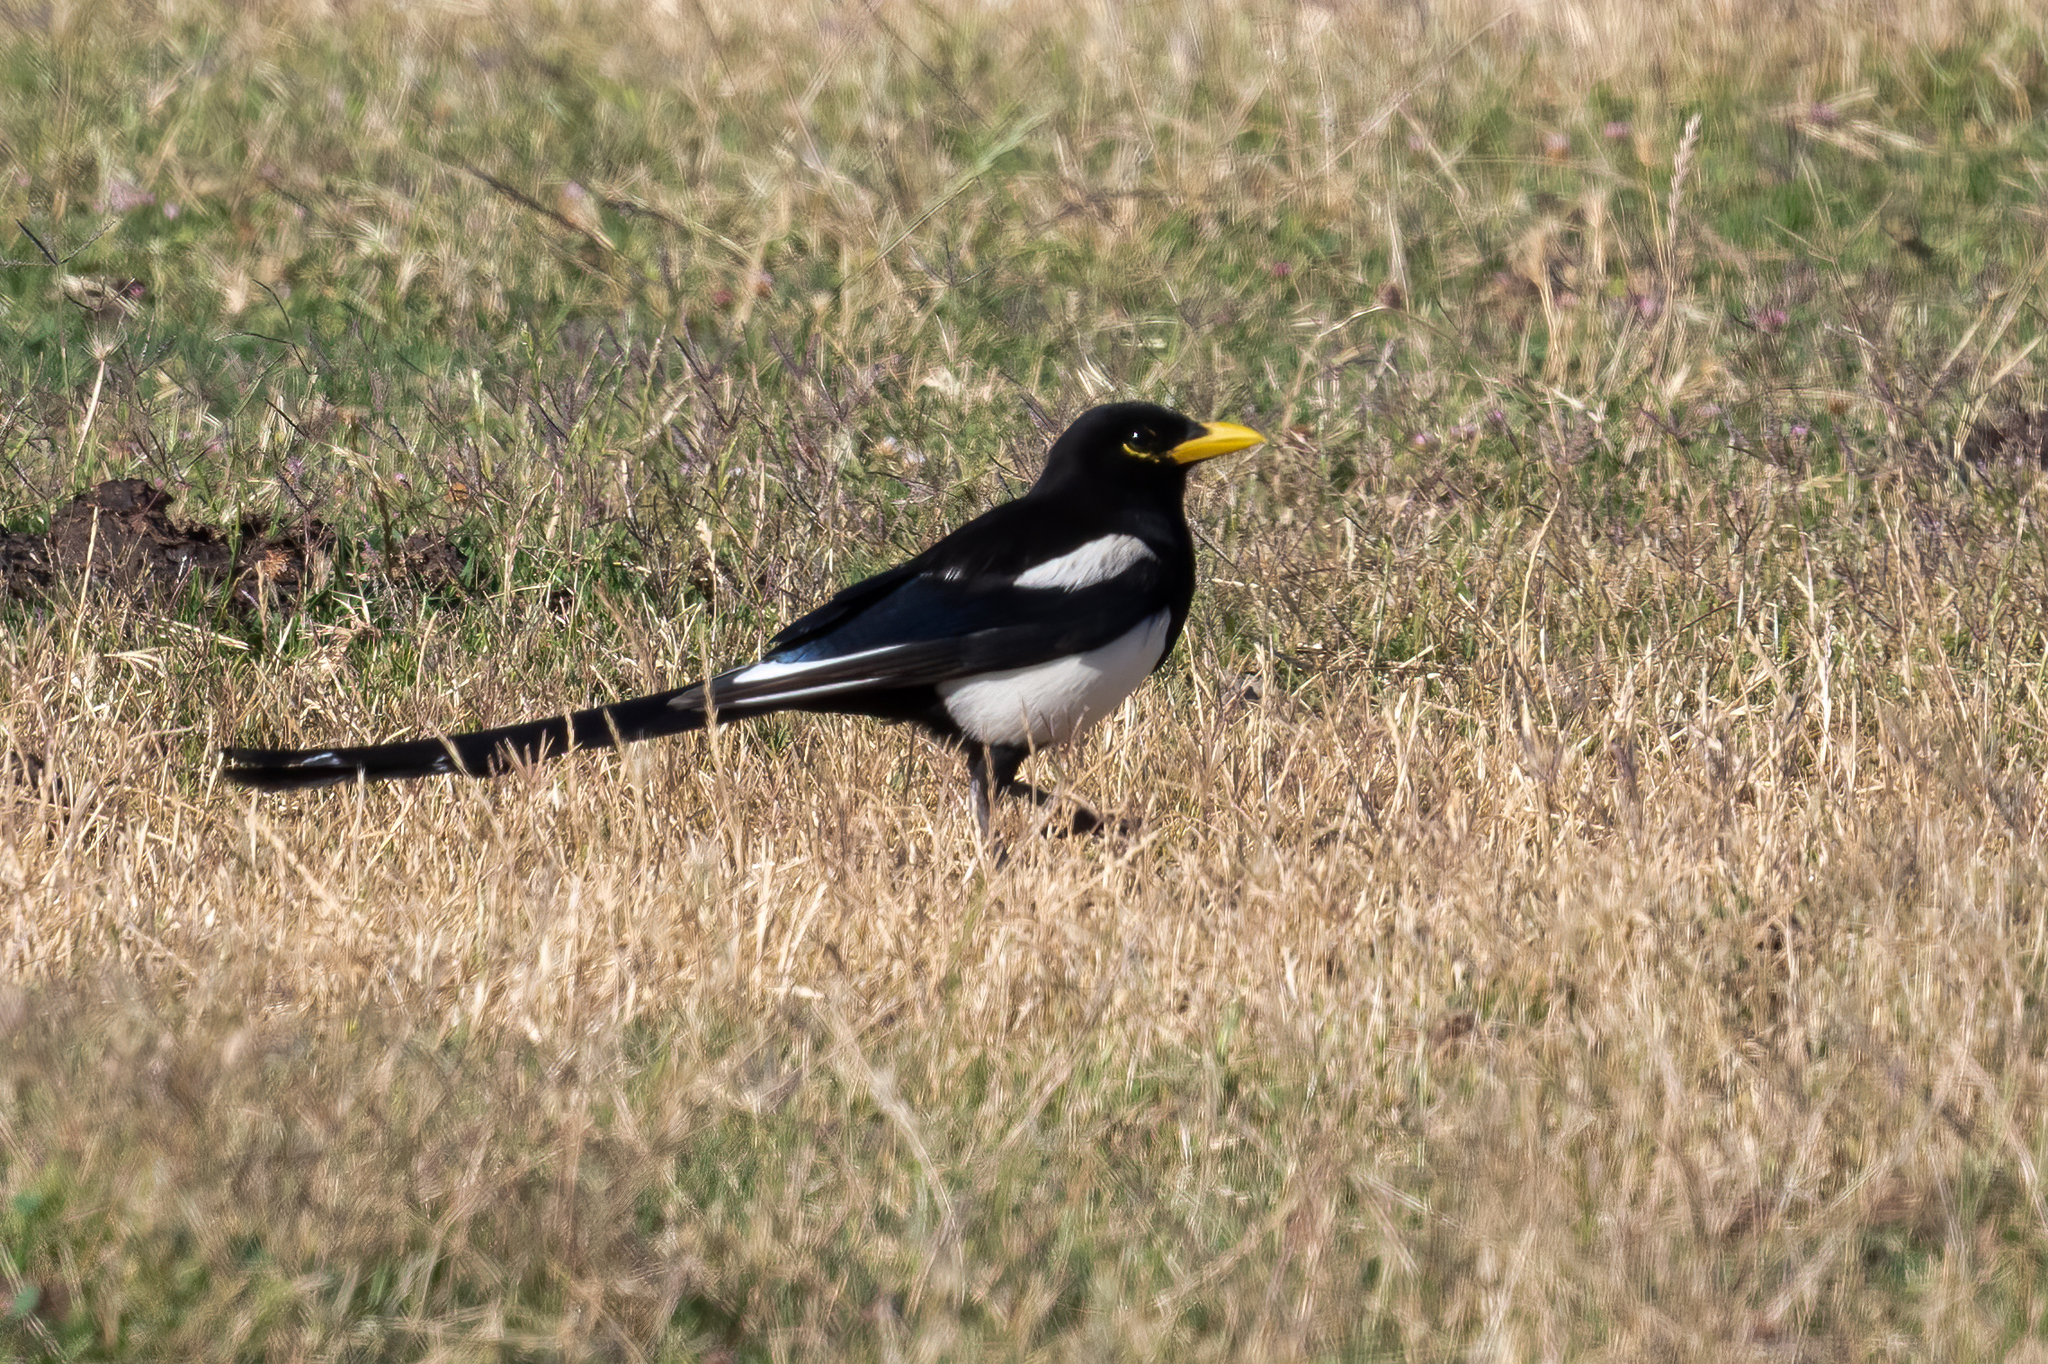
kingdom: Animalia
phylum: Chordata
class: Aves
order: Passeriformes
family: Corvidae
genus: Pica
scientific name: Pica nuttalli
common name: Yellow-billed magpie
